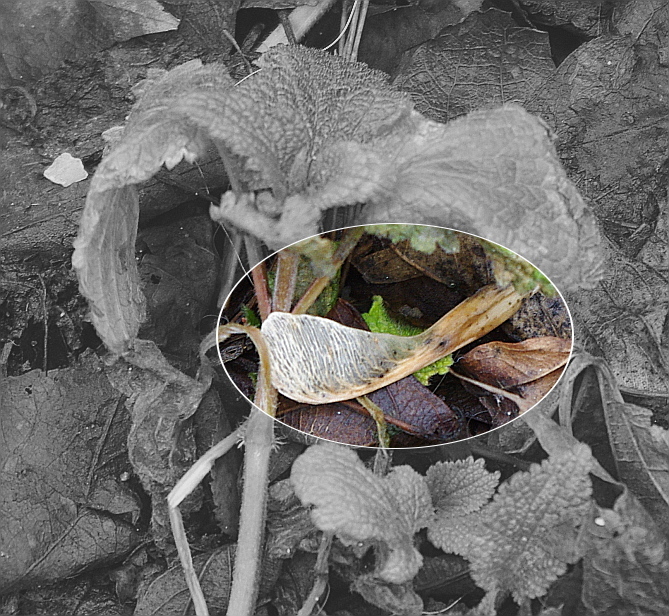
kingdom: Plantae
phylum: Tracheophyta
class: Magnoliopsida
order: Sapindales
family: Sapindaceae
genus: Acer
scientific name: Acer negundo
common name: Ashleaf maple
